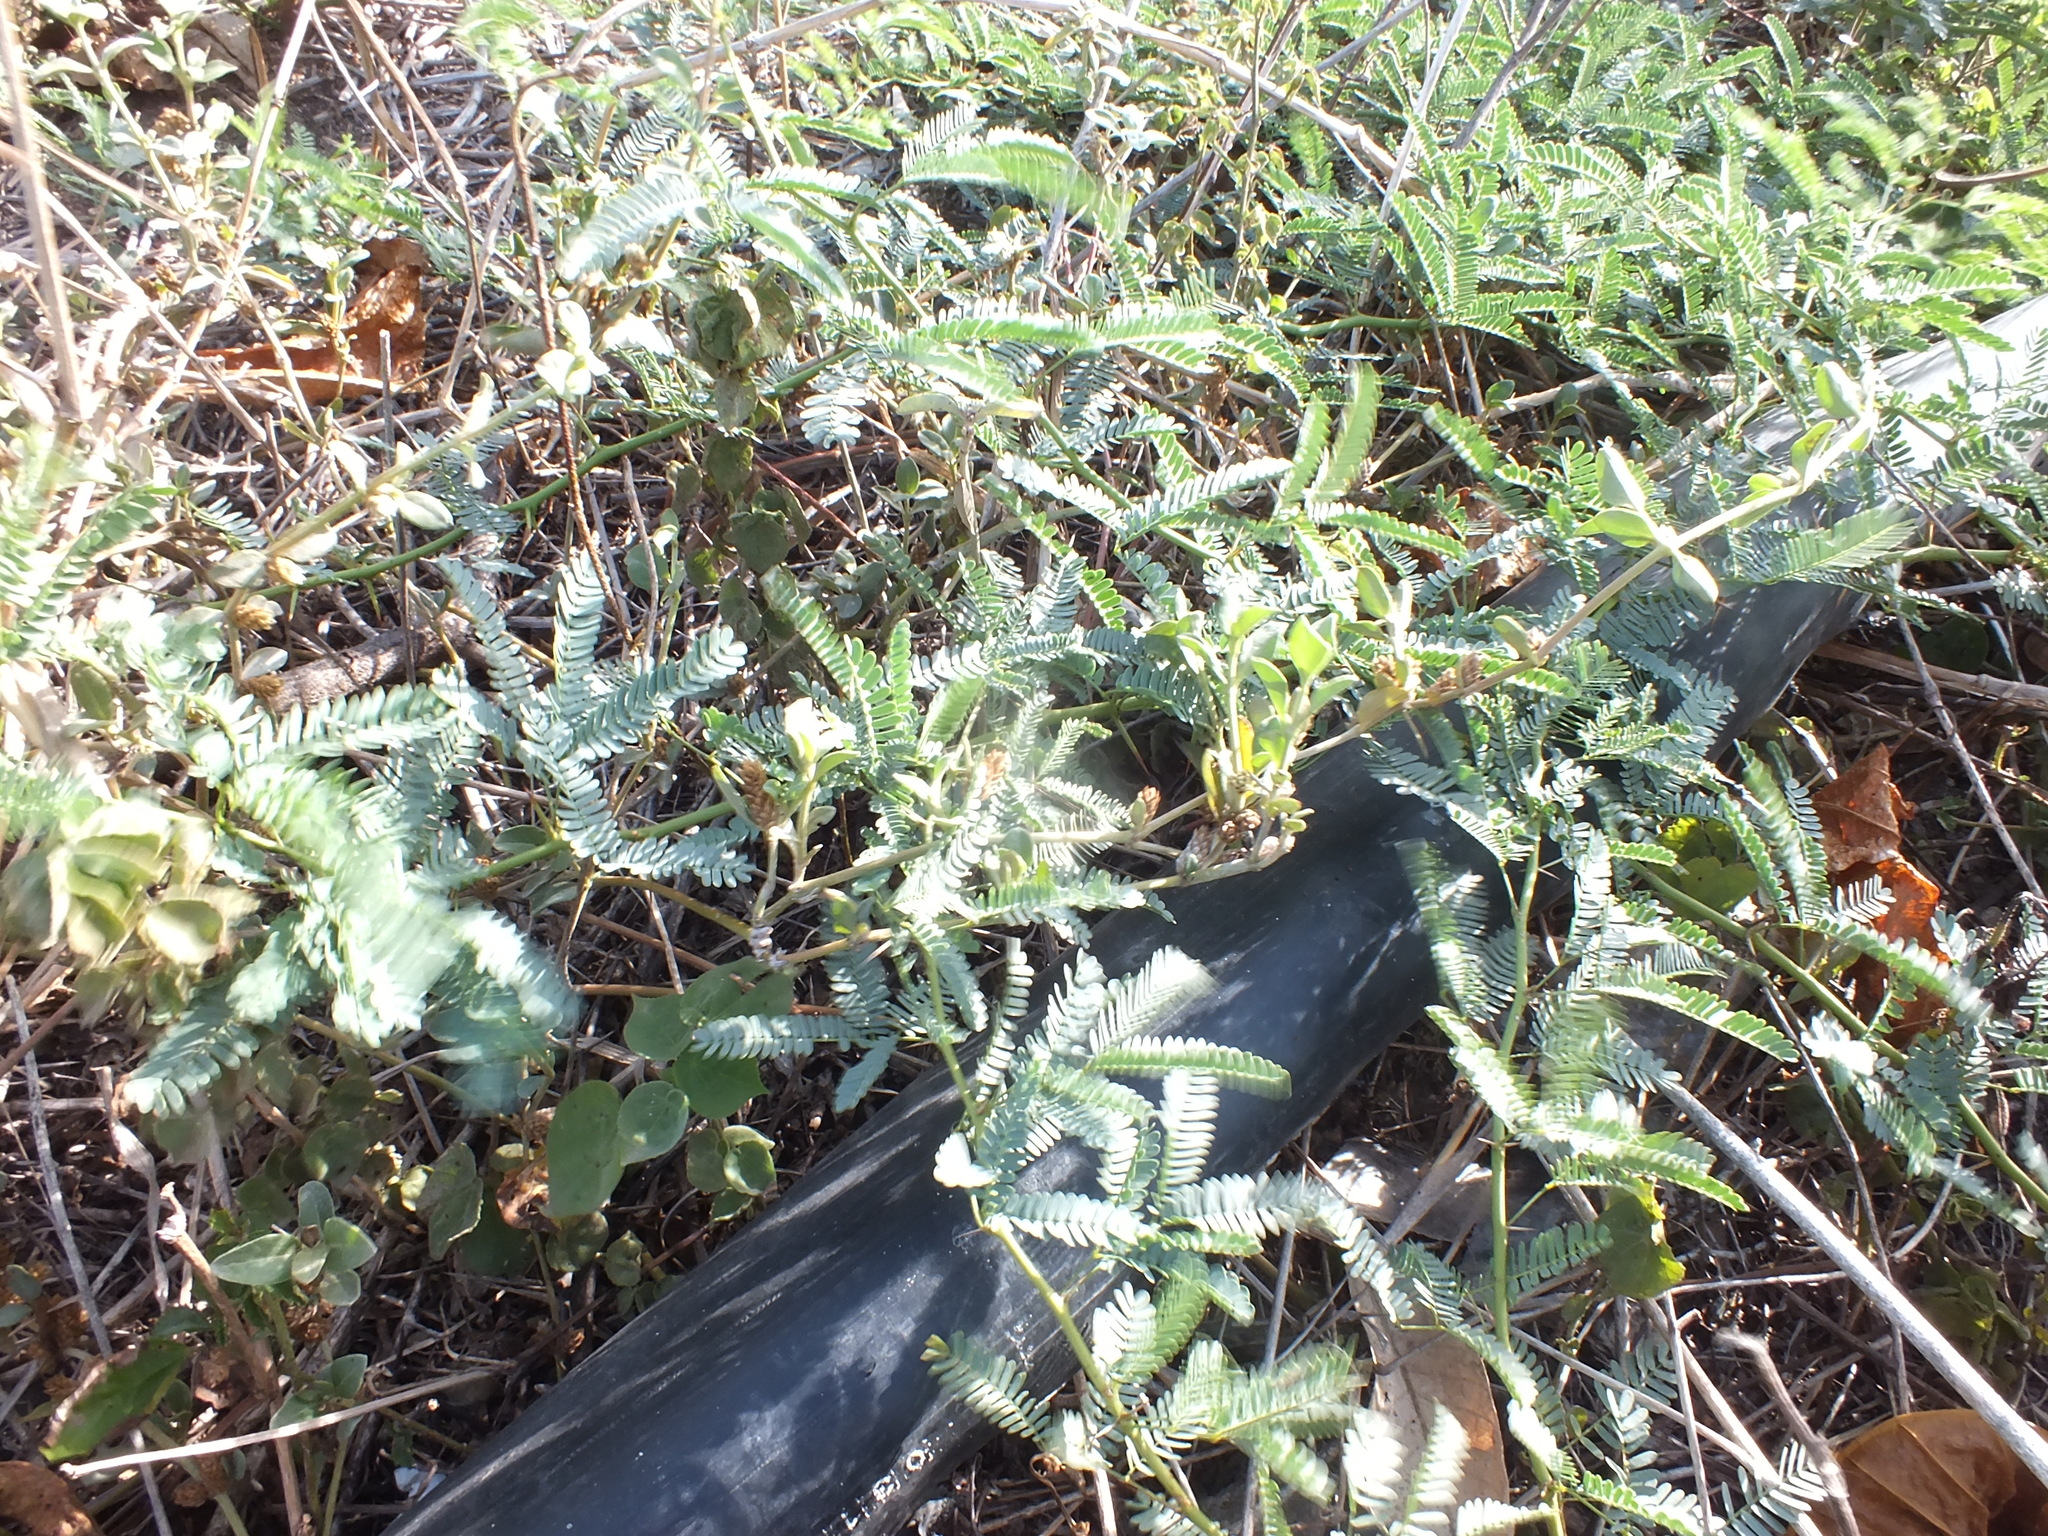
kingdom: Plantae
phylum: Tracheophyta
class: Magnoliopsida
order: Fabales
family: Fabaceae
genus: Mimosa
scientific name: Mimosa pudica
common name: Sensitive plant
